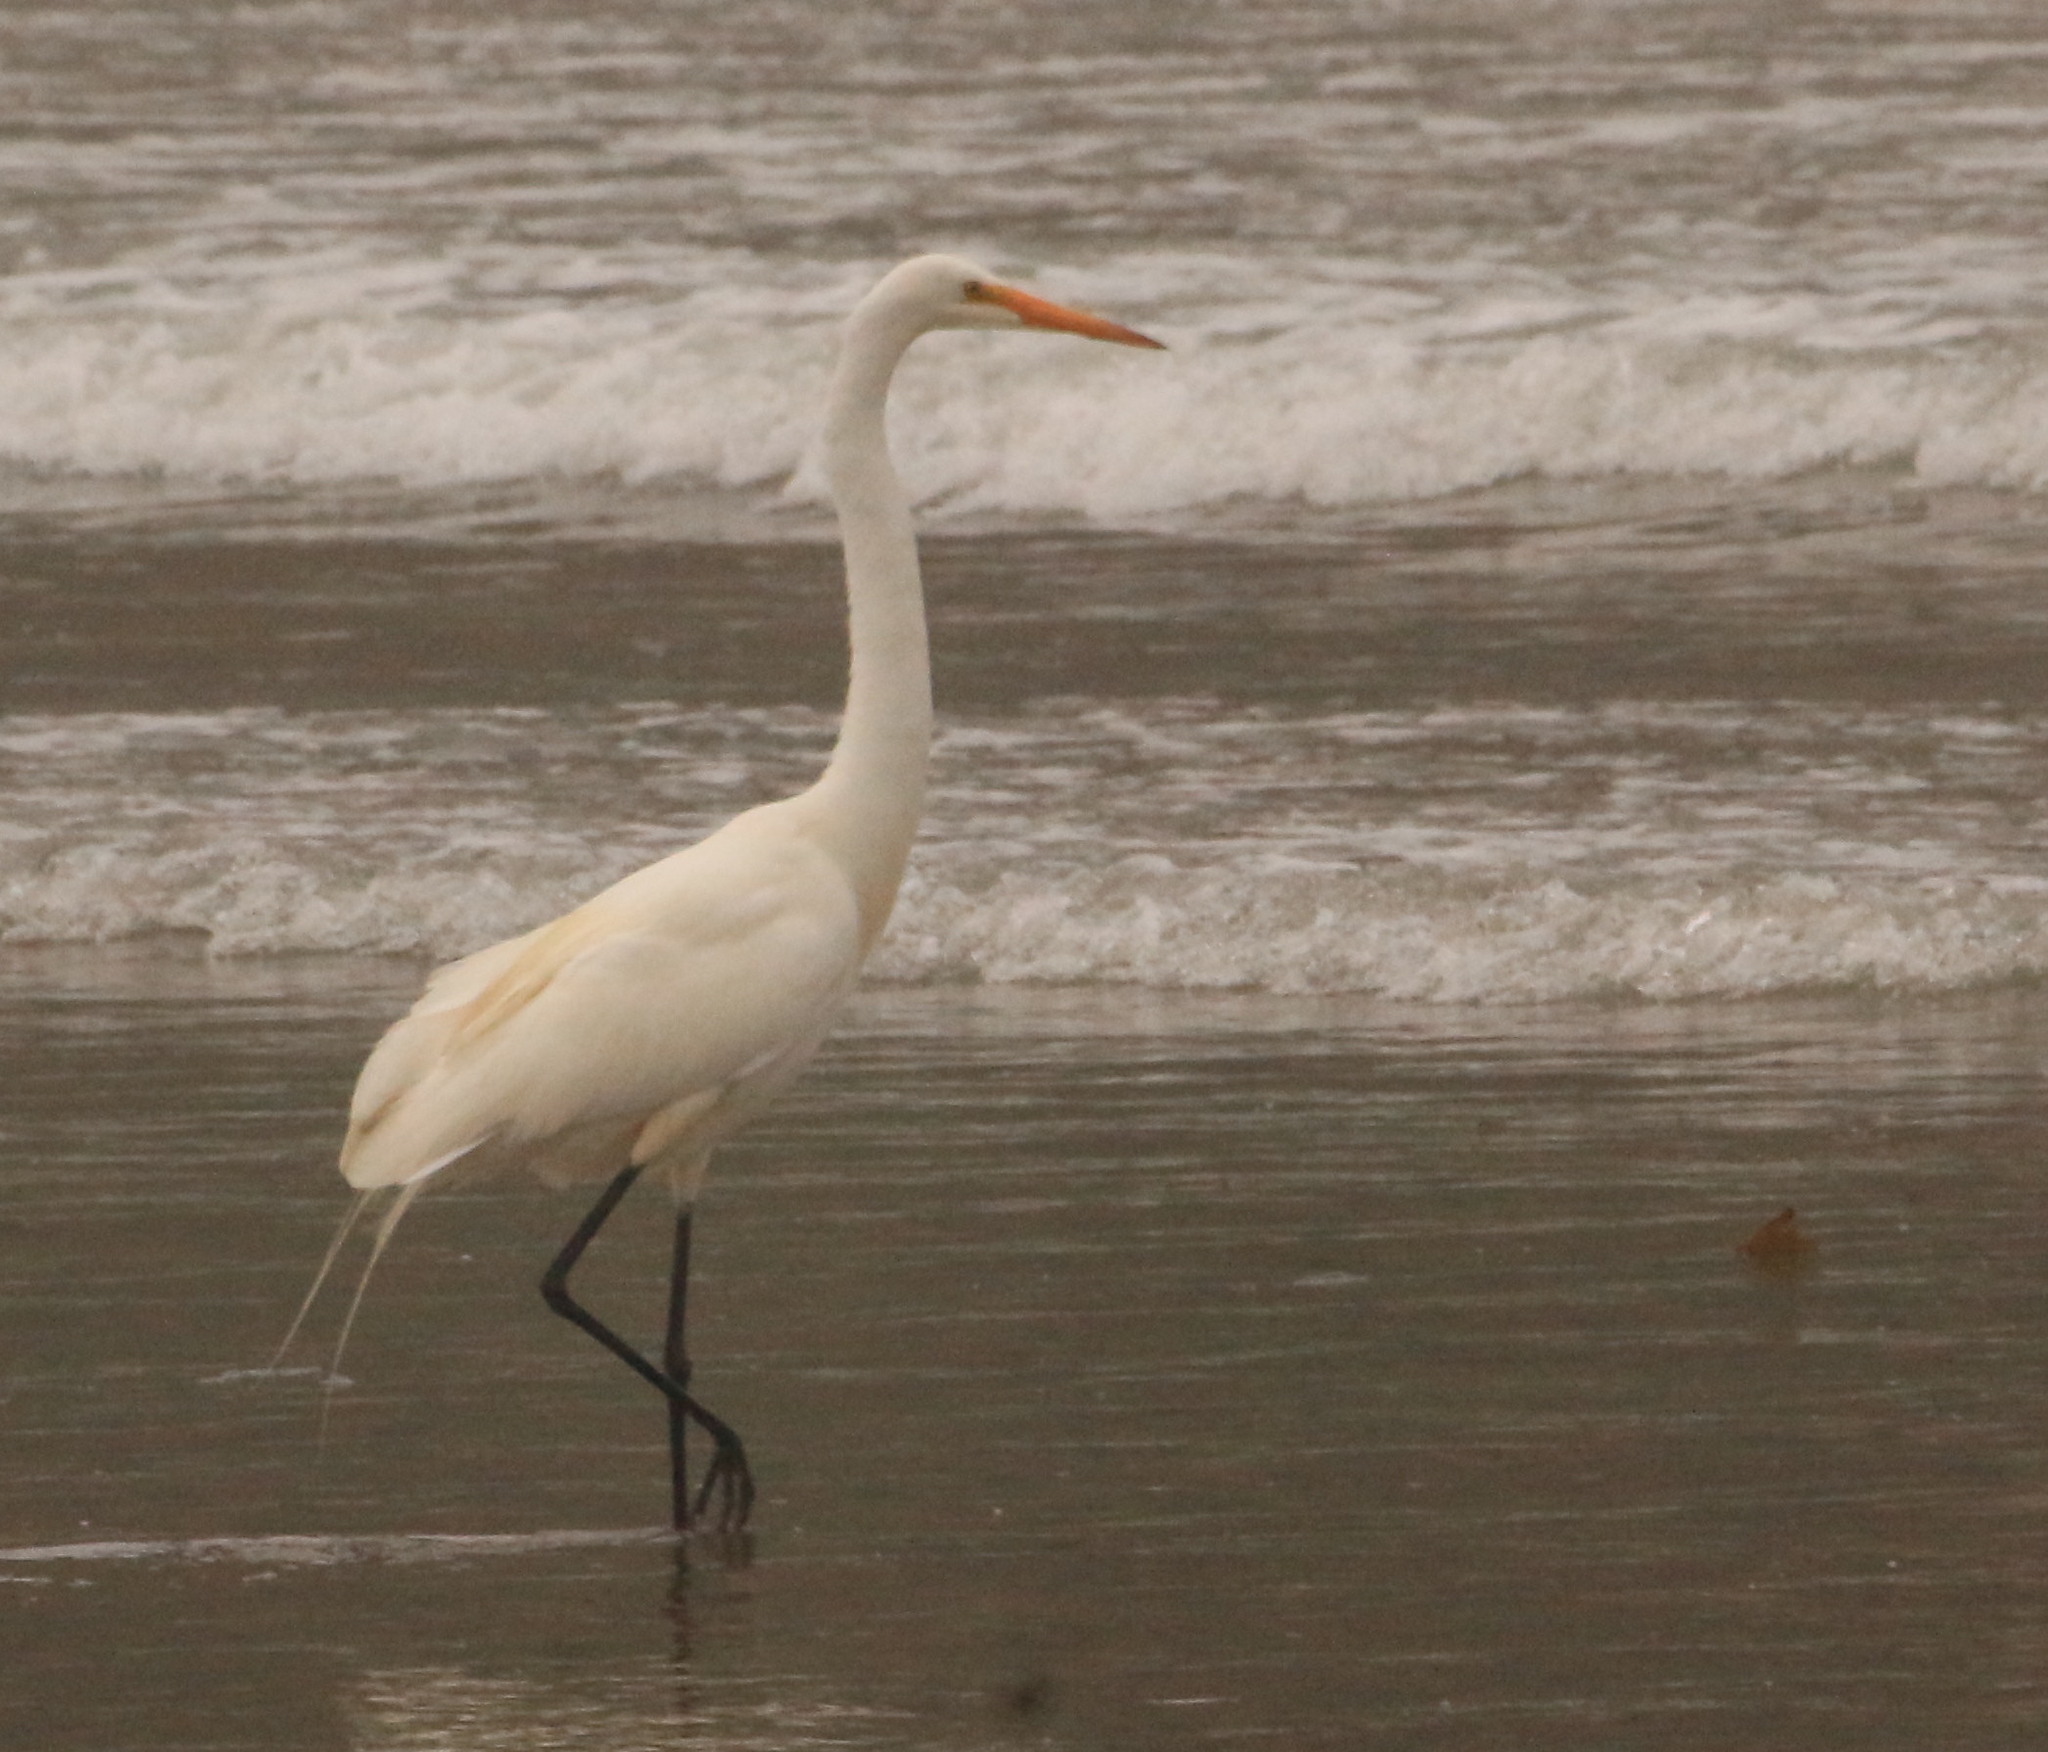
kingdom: Animalia
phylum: Chordata
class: Aves
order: Pelecaniformes
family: Ardeidae
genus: Ardea
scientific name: Ardea alba
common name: Great egret
